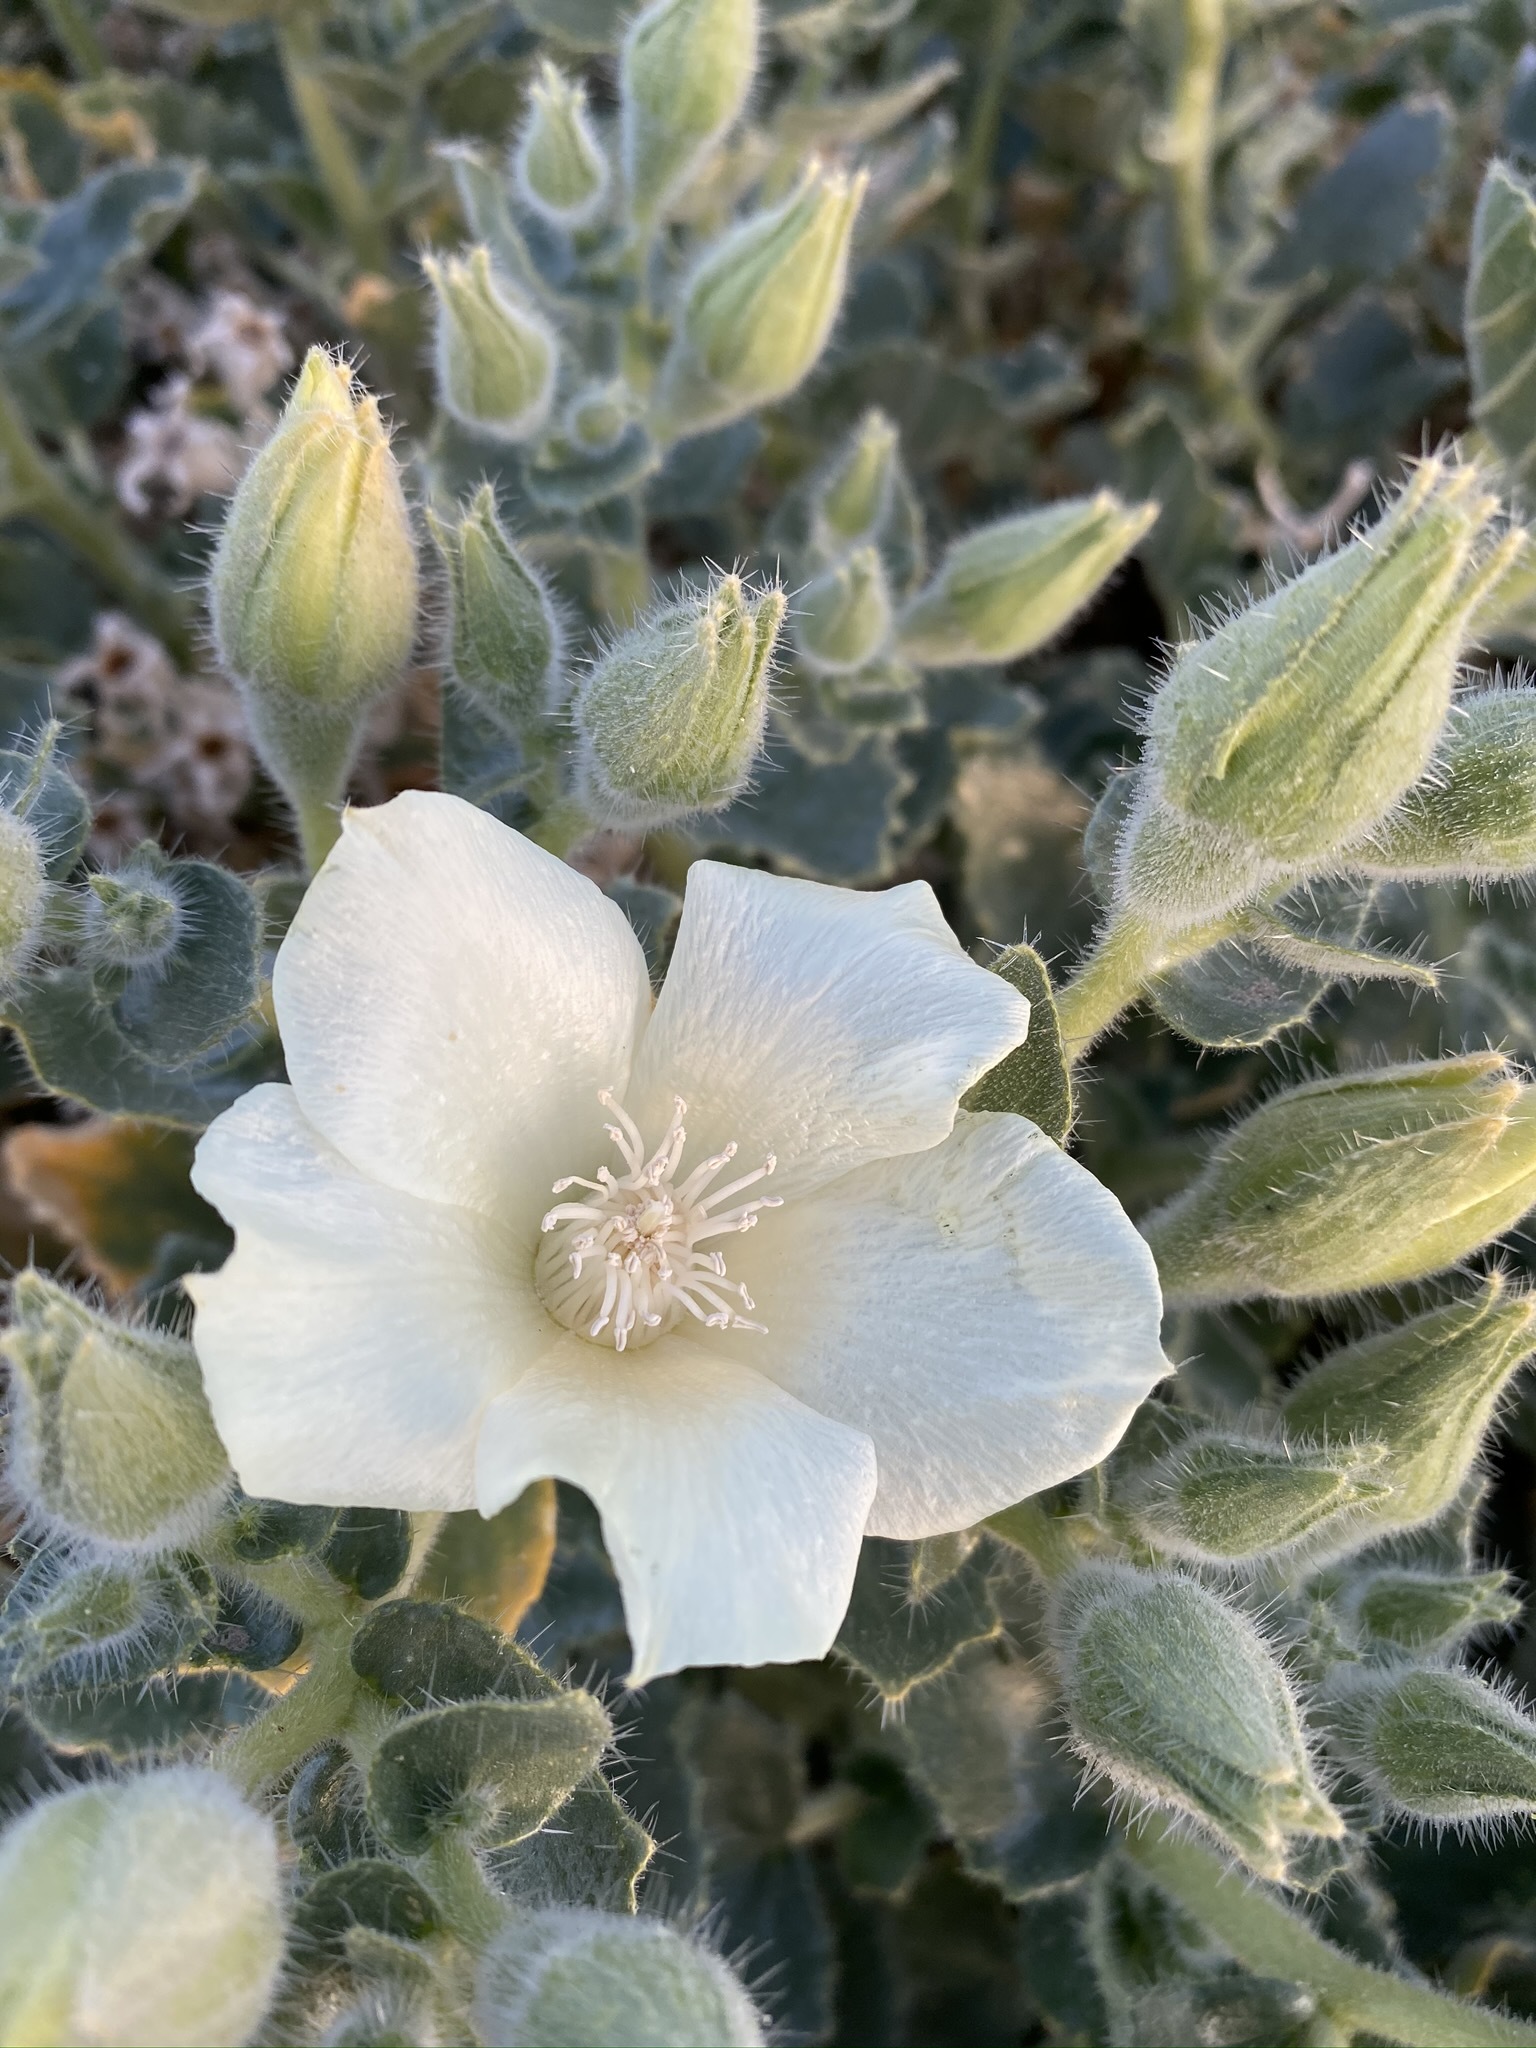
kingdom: Plantae
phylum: Tracheophyta
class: Magnoliopsida
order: Cornales
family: Loasaceae
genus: Eucnide
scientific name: Eucnide urens
